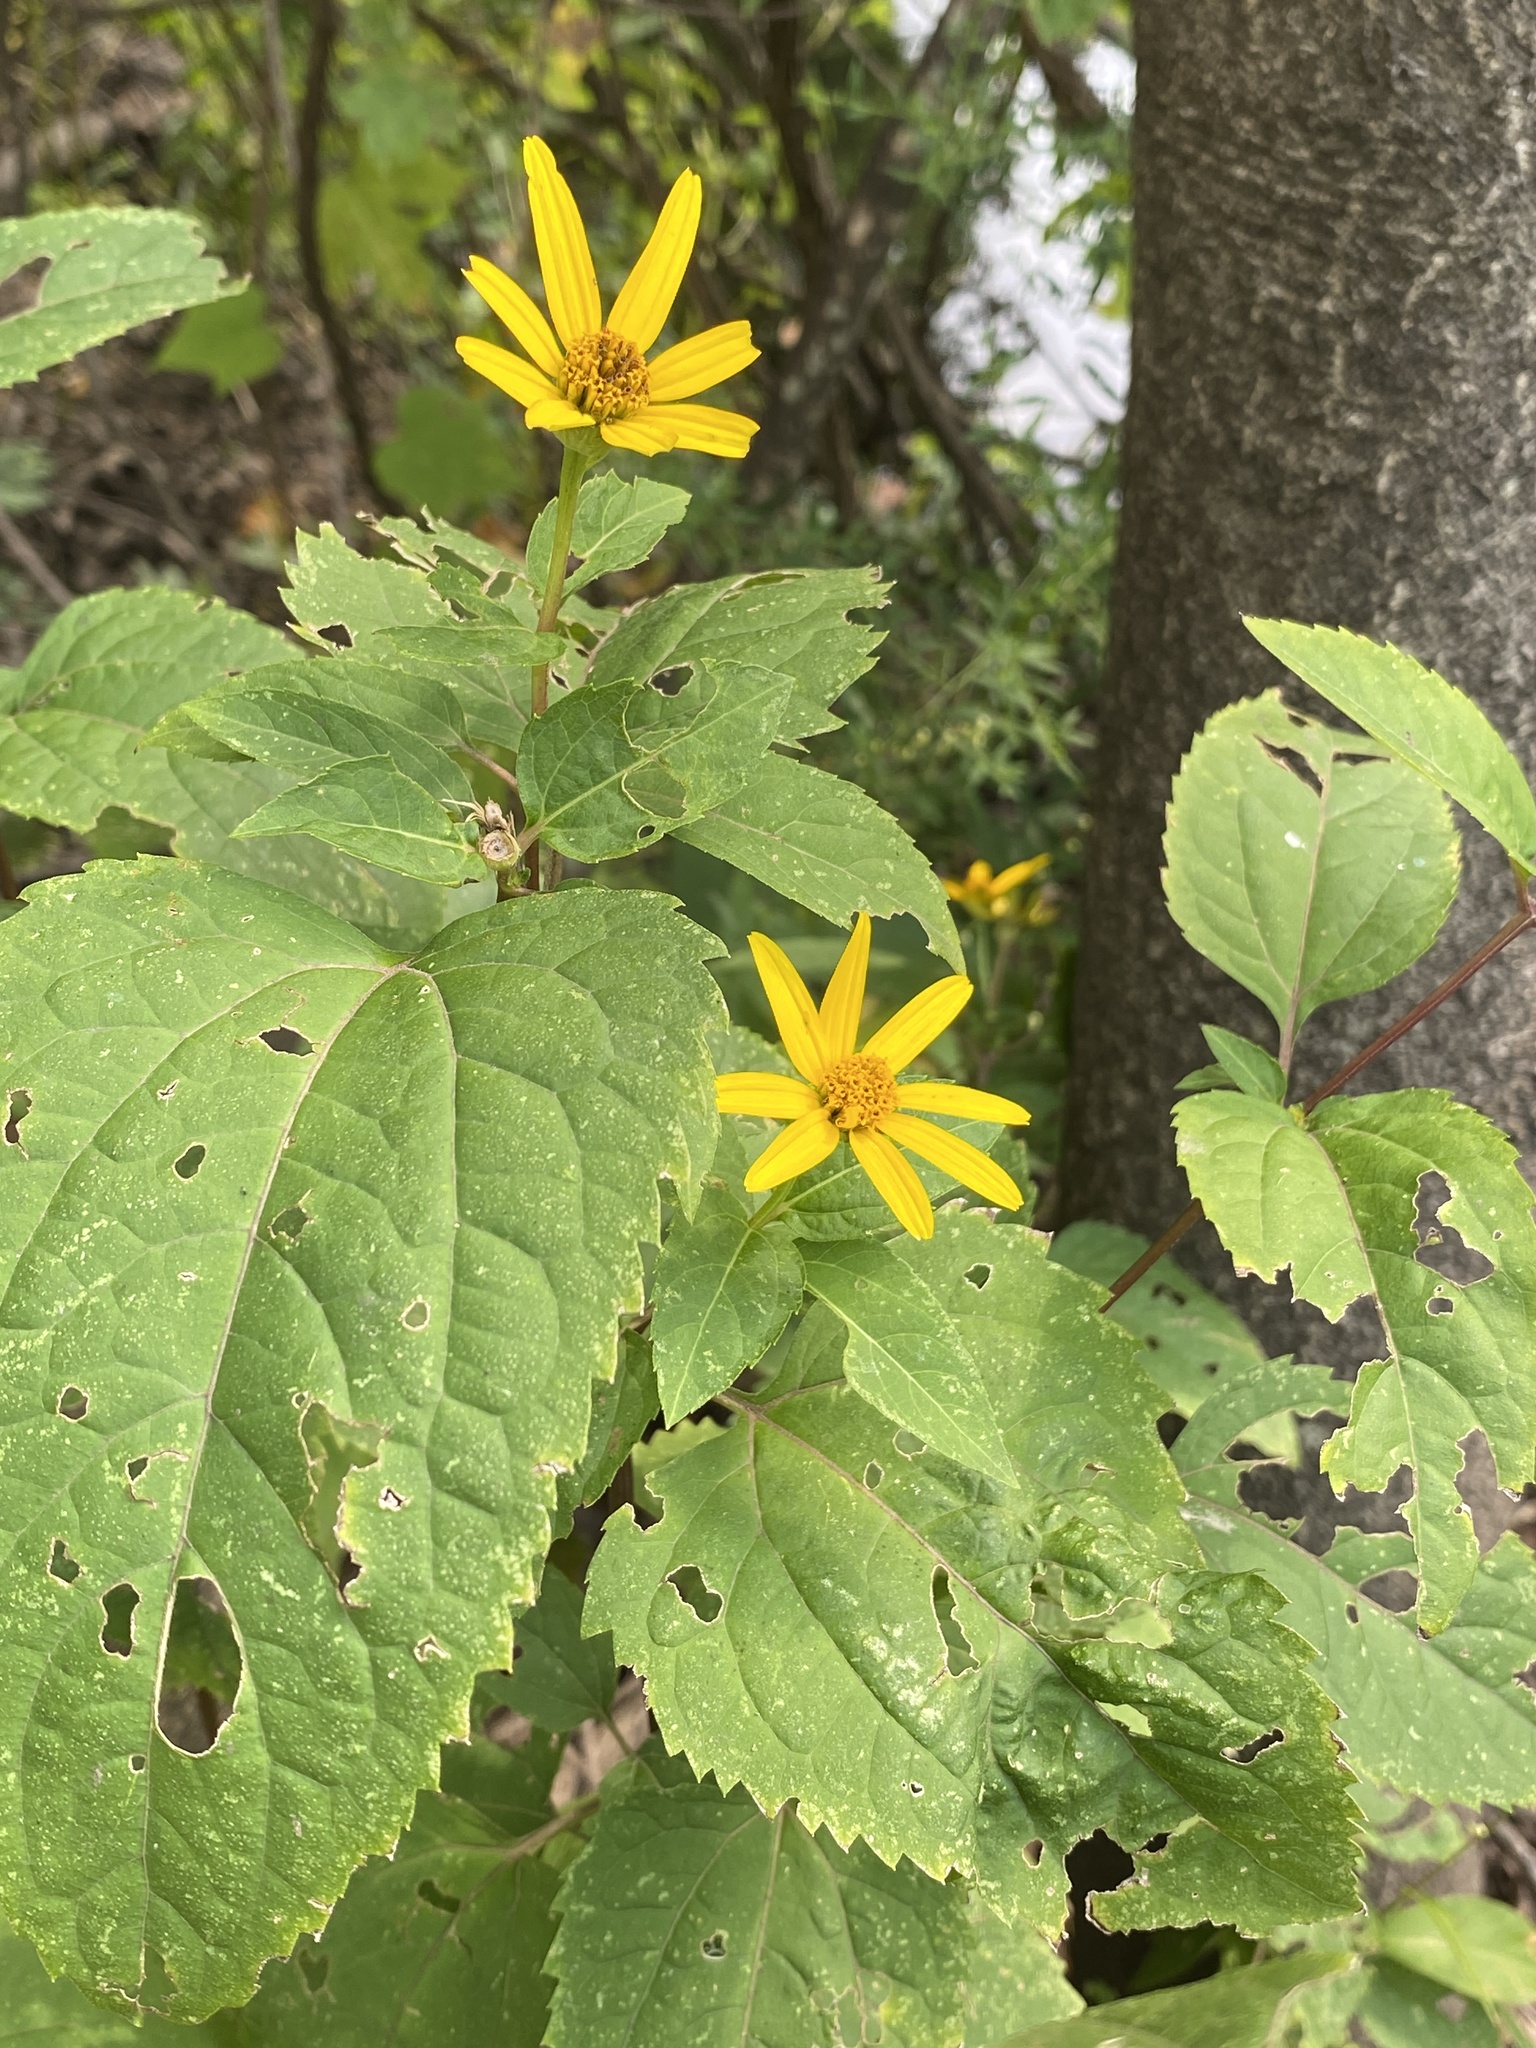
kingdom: Plantae
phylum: Tracheophyta
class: Magnoliopsida
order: Asterales
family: Asteraceae
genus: Heliopsis
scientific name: Heliopsis helianthoides
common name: False sunflower
